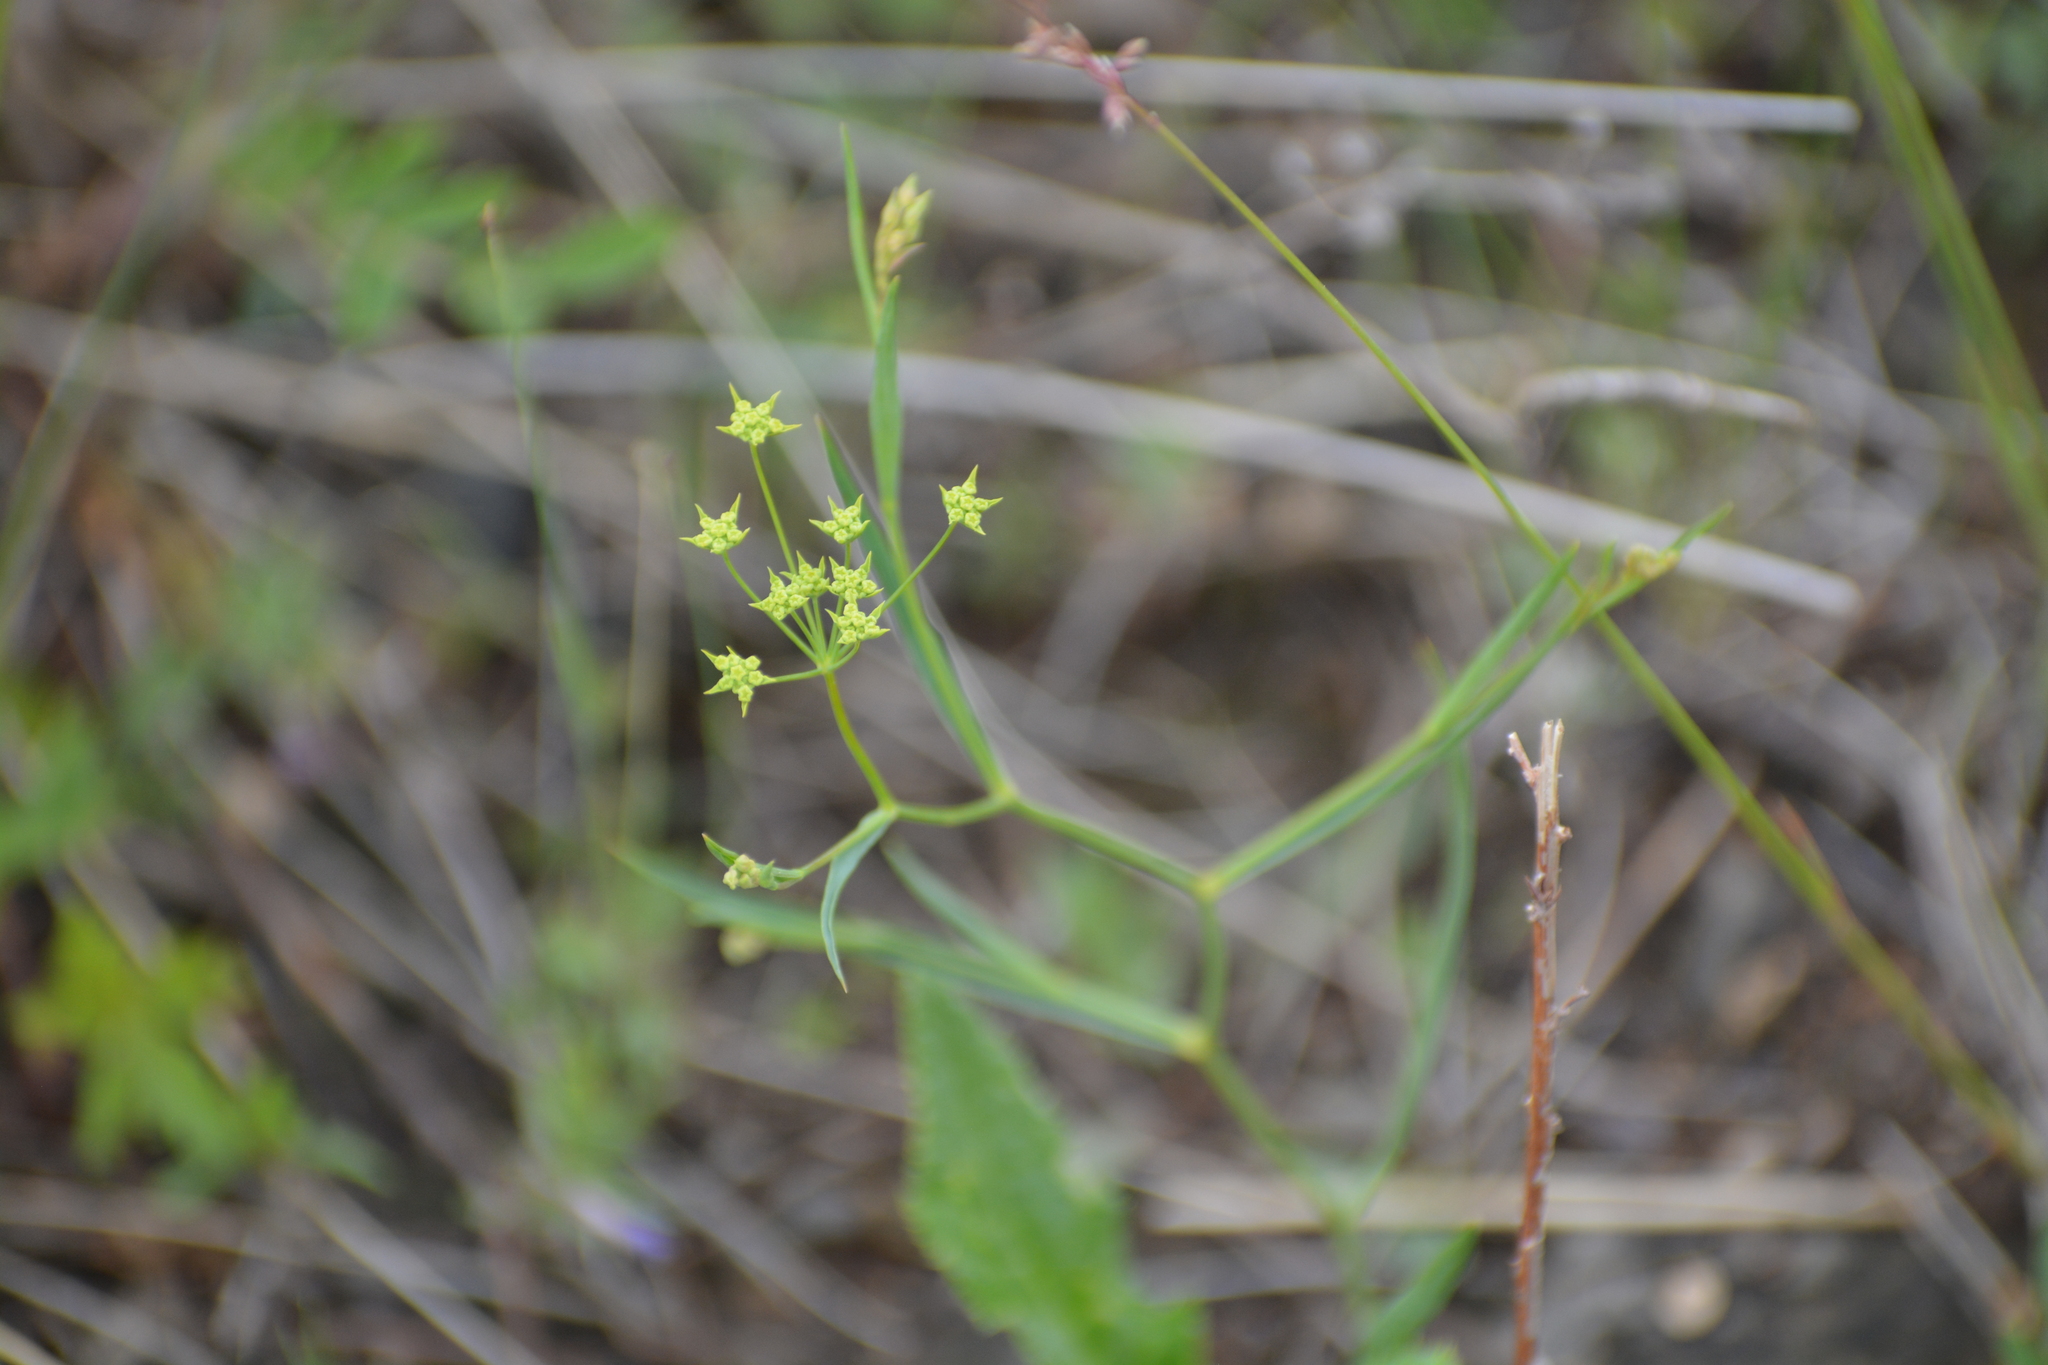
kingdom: Plantae
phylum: Tracheophyta
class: Magnoliopsida
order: Apiales
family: Apiaceae
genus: Bupleurum
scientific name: Bupleurum scorzonerifolium
